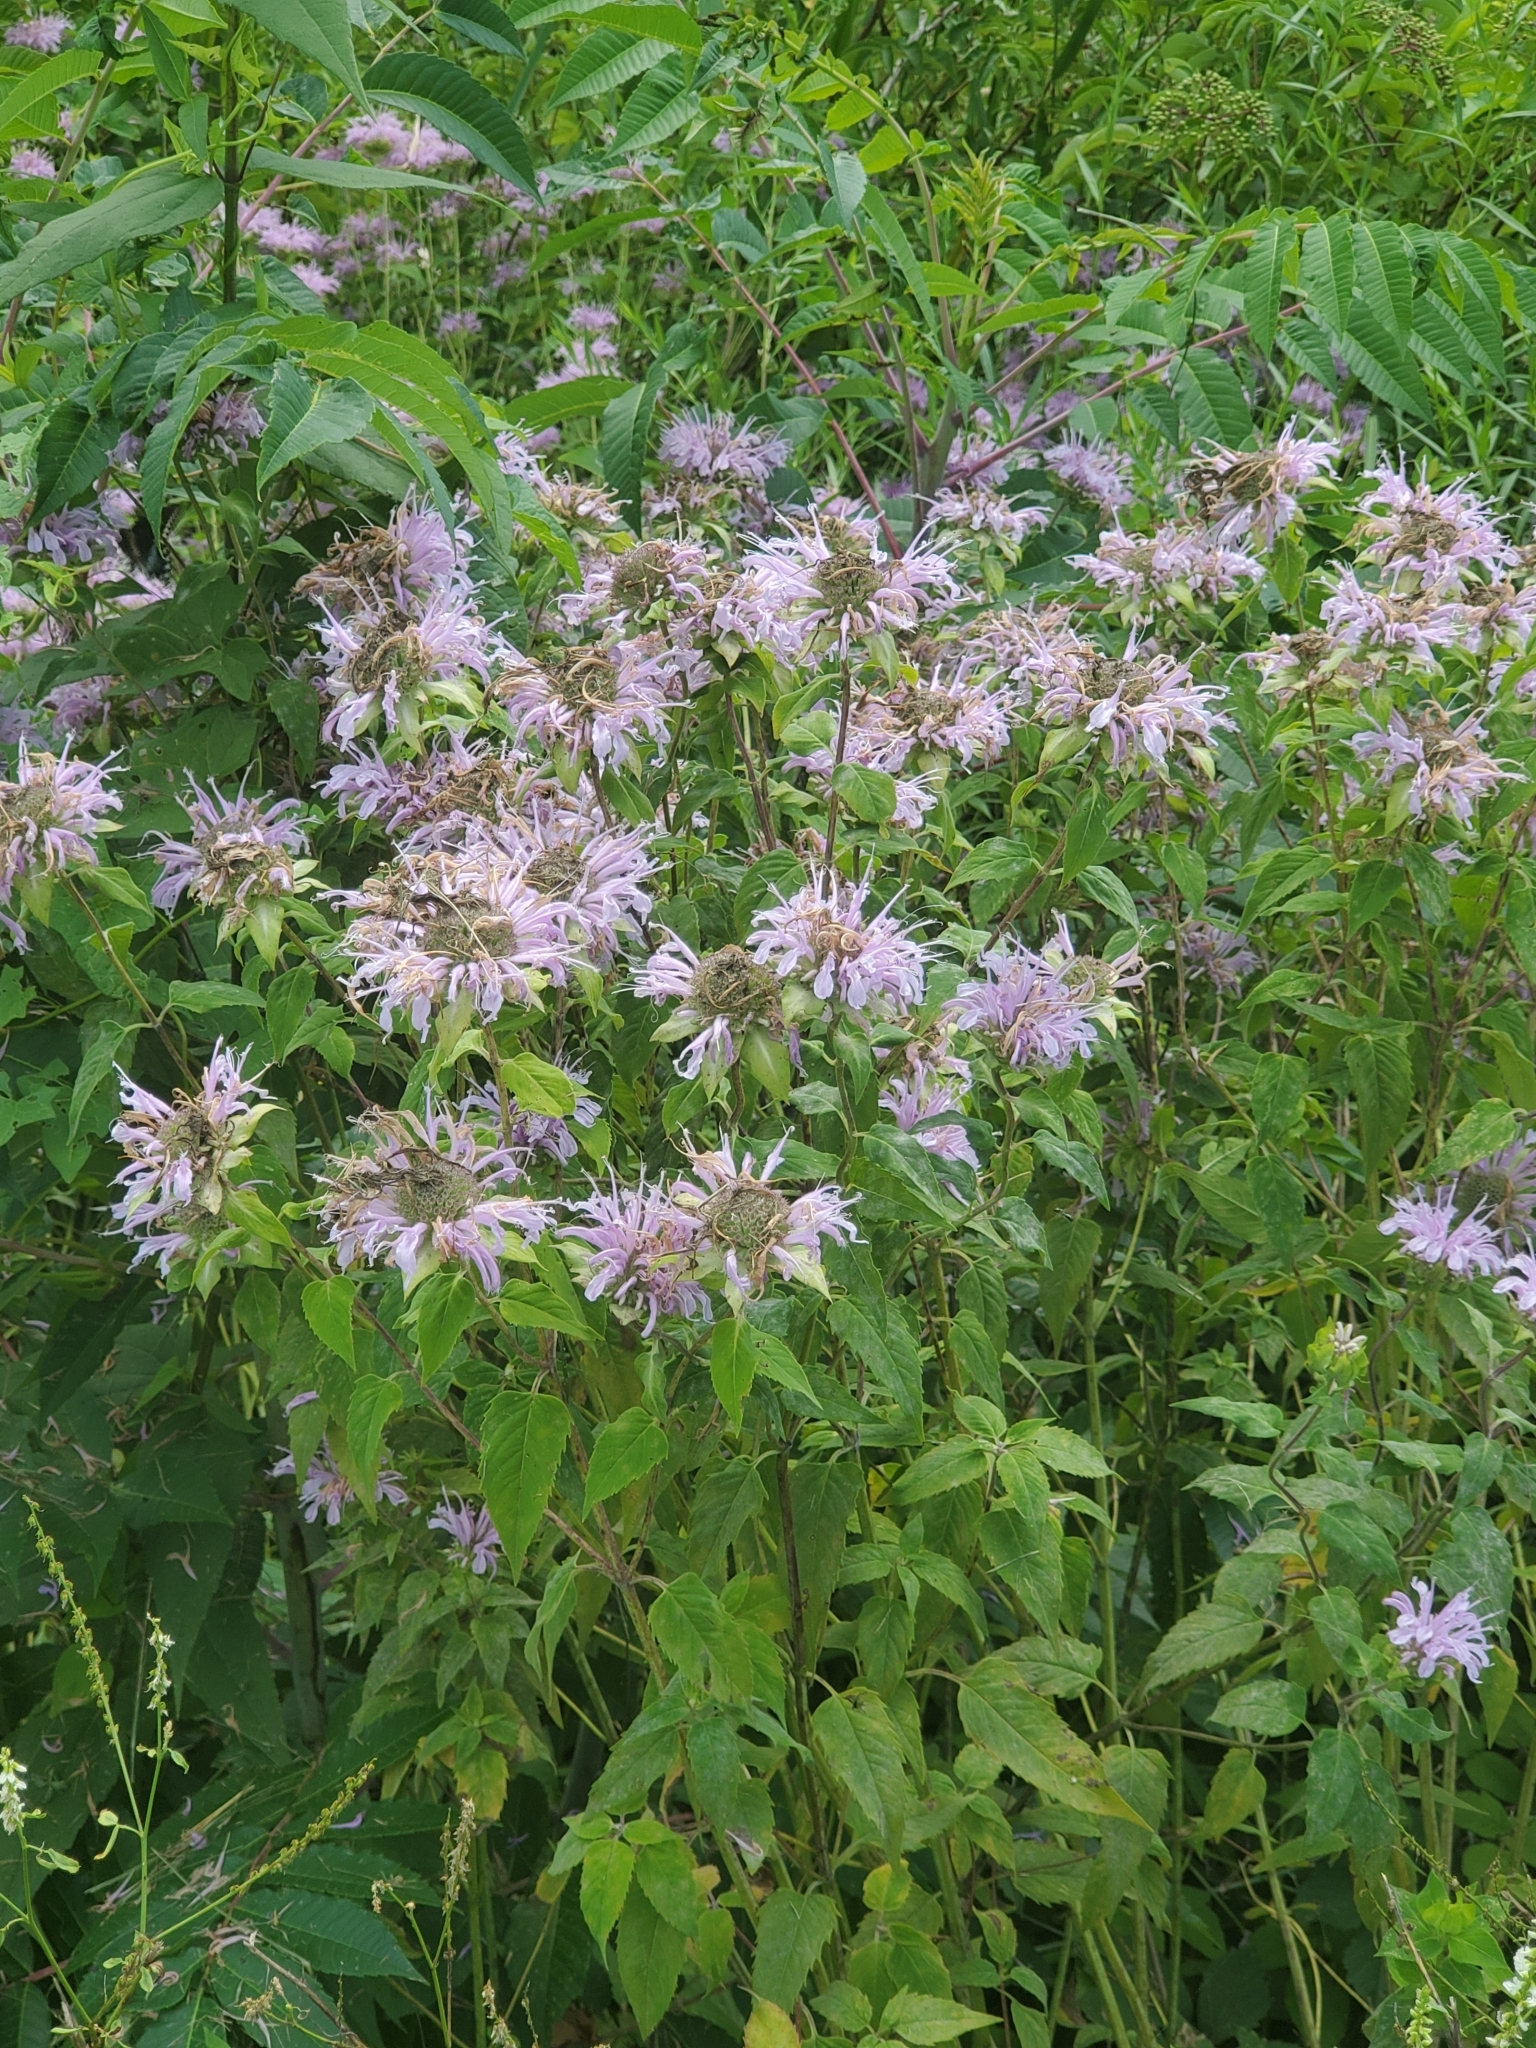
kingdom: Plantae
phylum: Tracheophyta
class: Magnoliopsida
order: Lamiales
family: Lamiaceae
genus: Monarda
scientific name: Monarda fistulosa
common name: Purple beebalm
